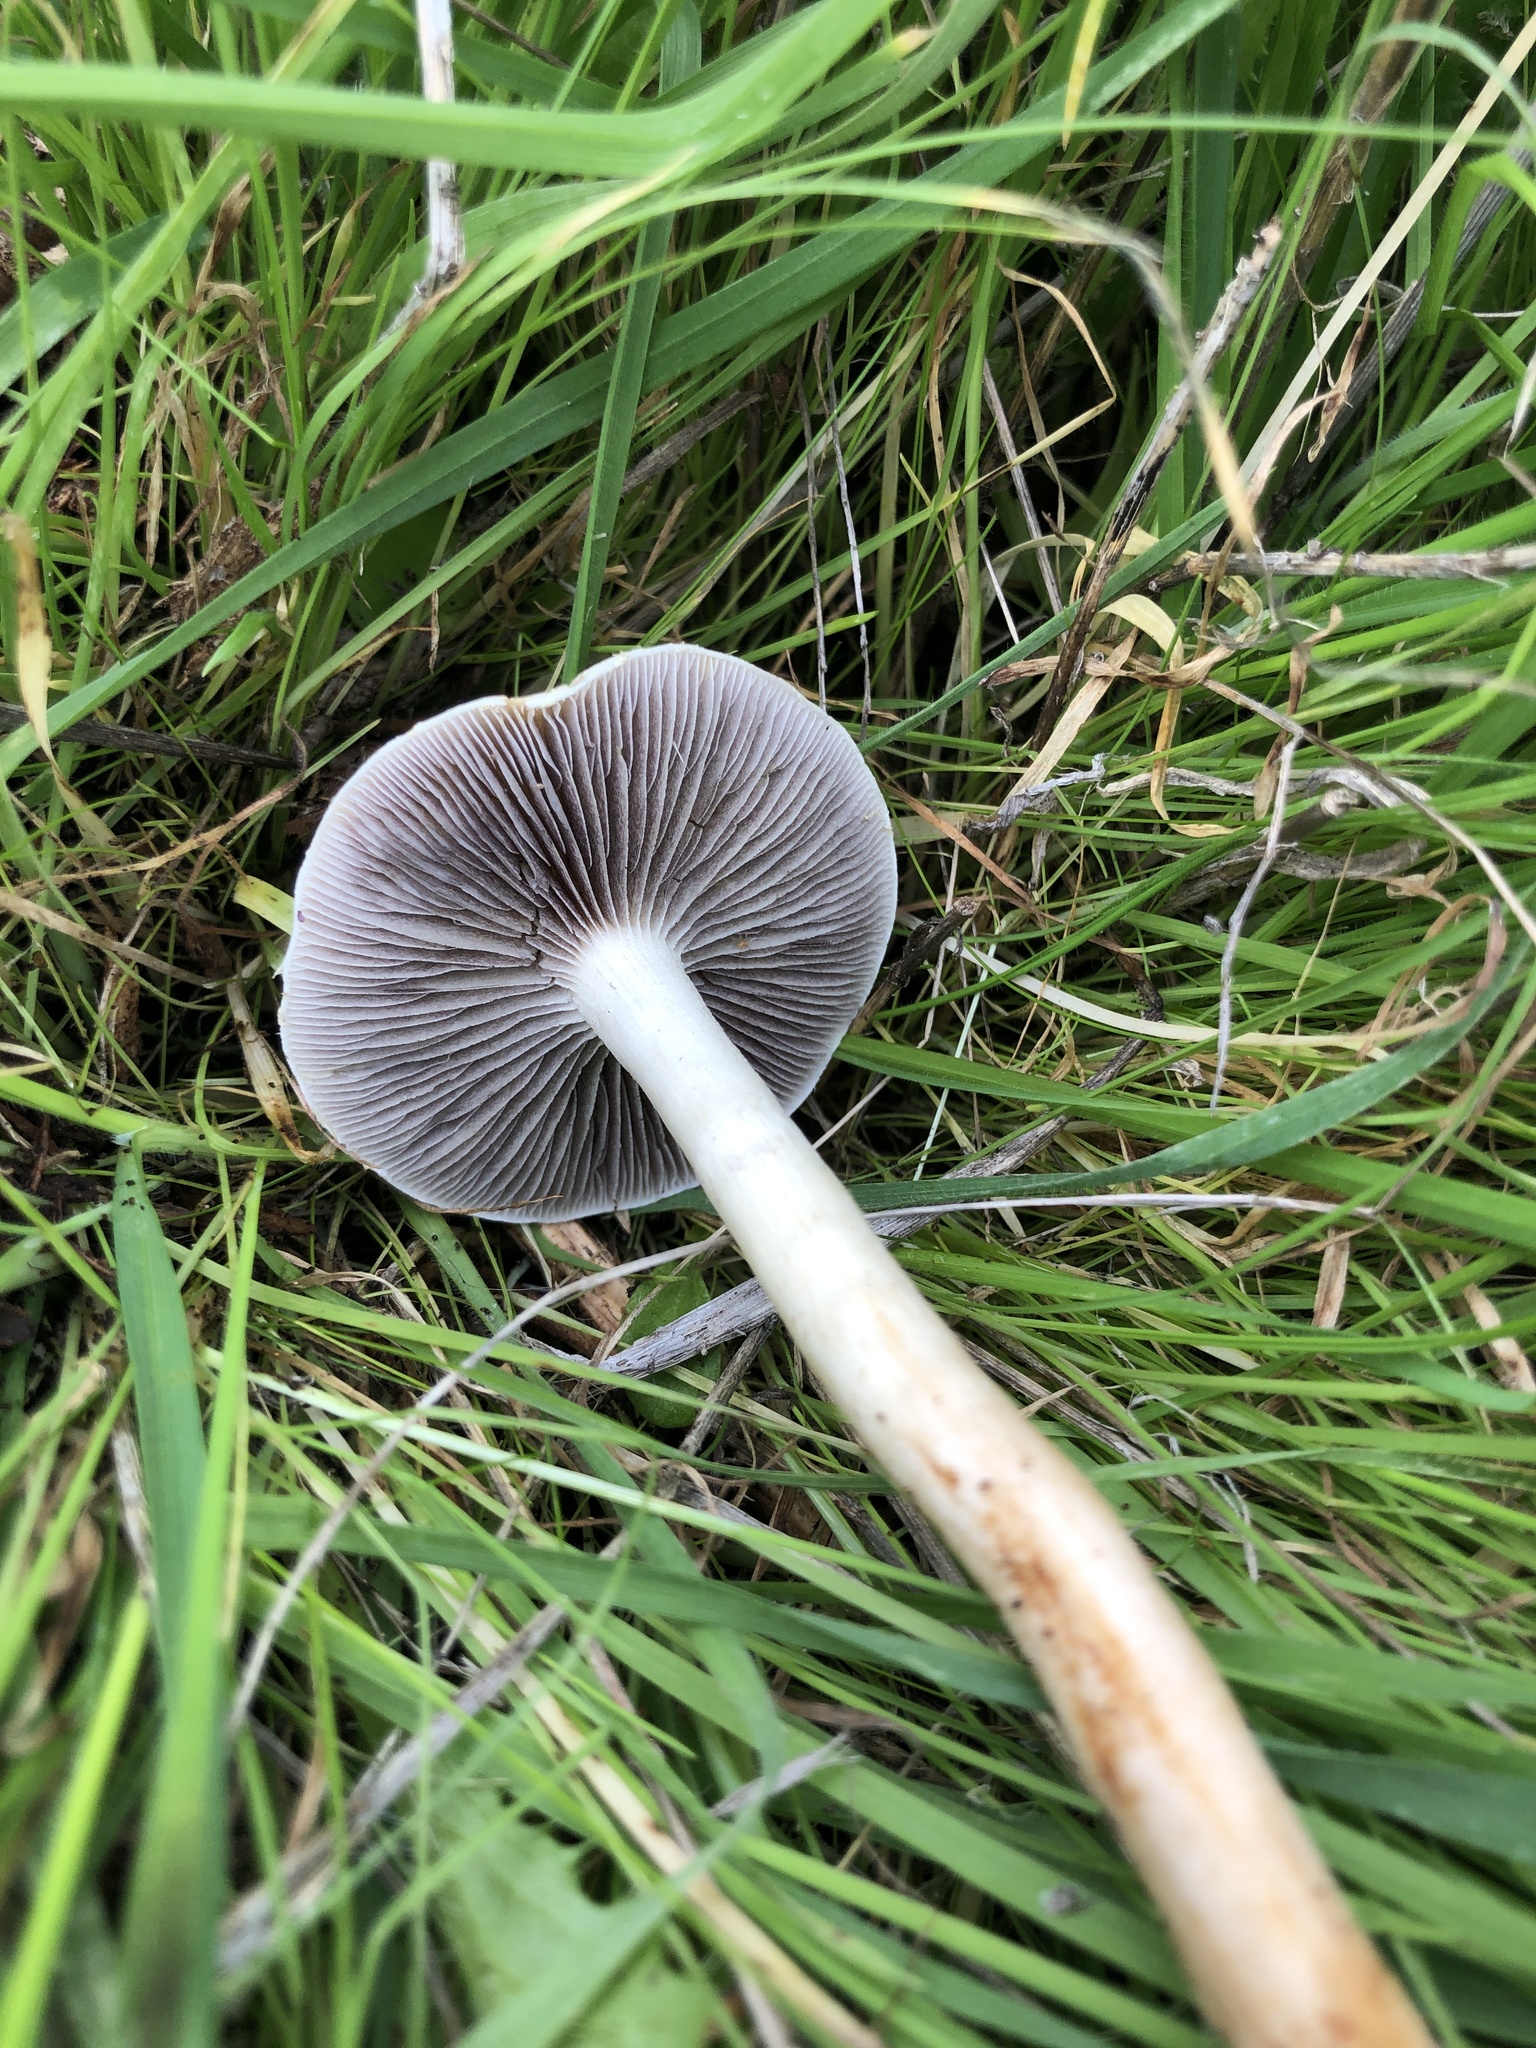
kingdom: Fungi
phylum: Basidiomycota
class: Agaricomycetes
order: Agaricales
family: Strophariaceae
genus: Leratiomyces
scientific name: Leratiomyces percevalii
